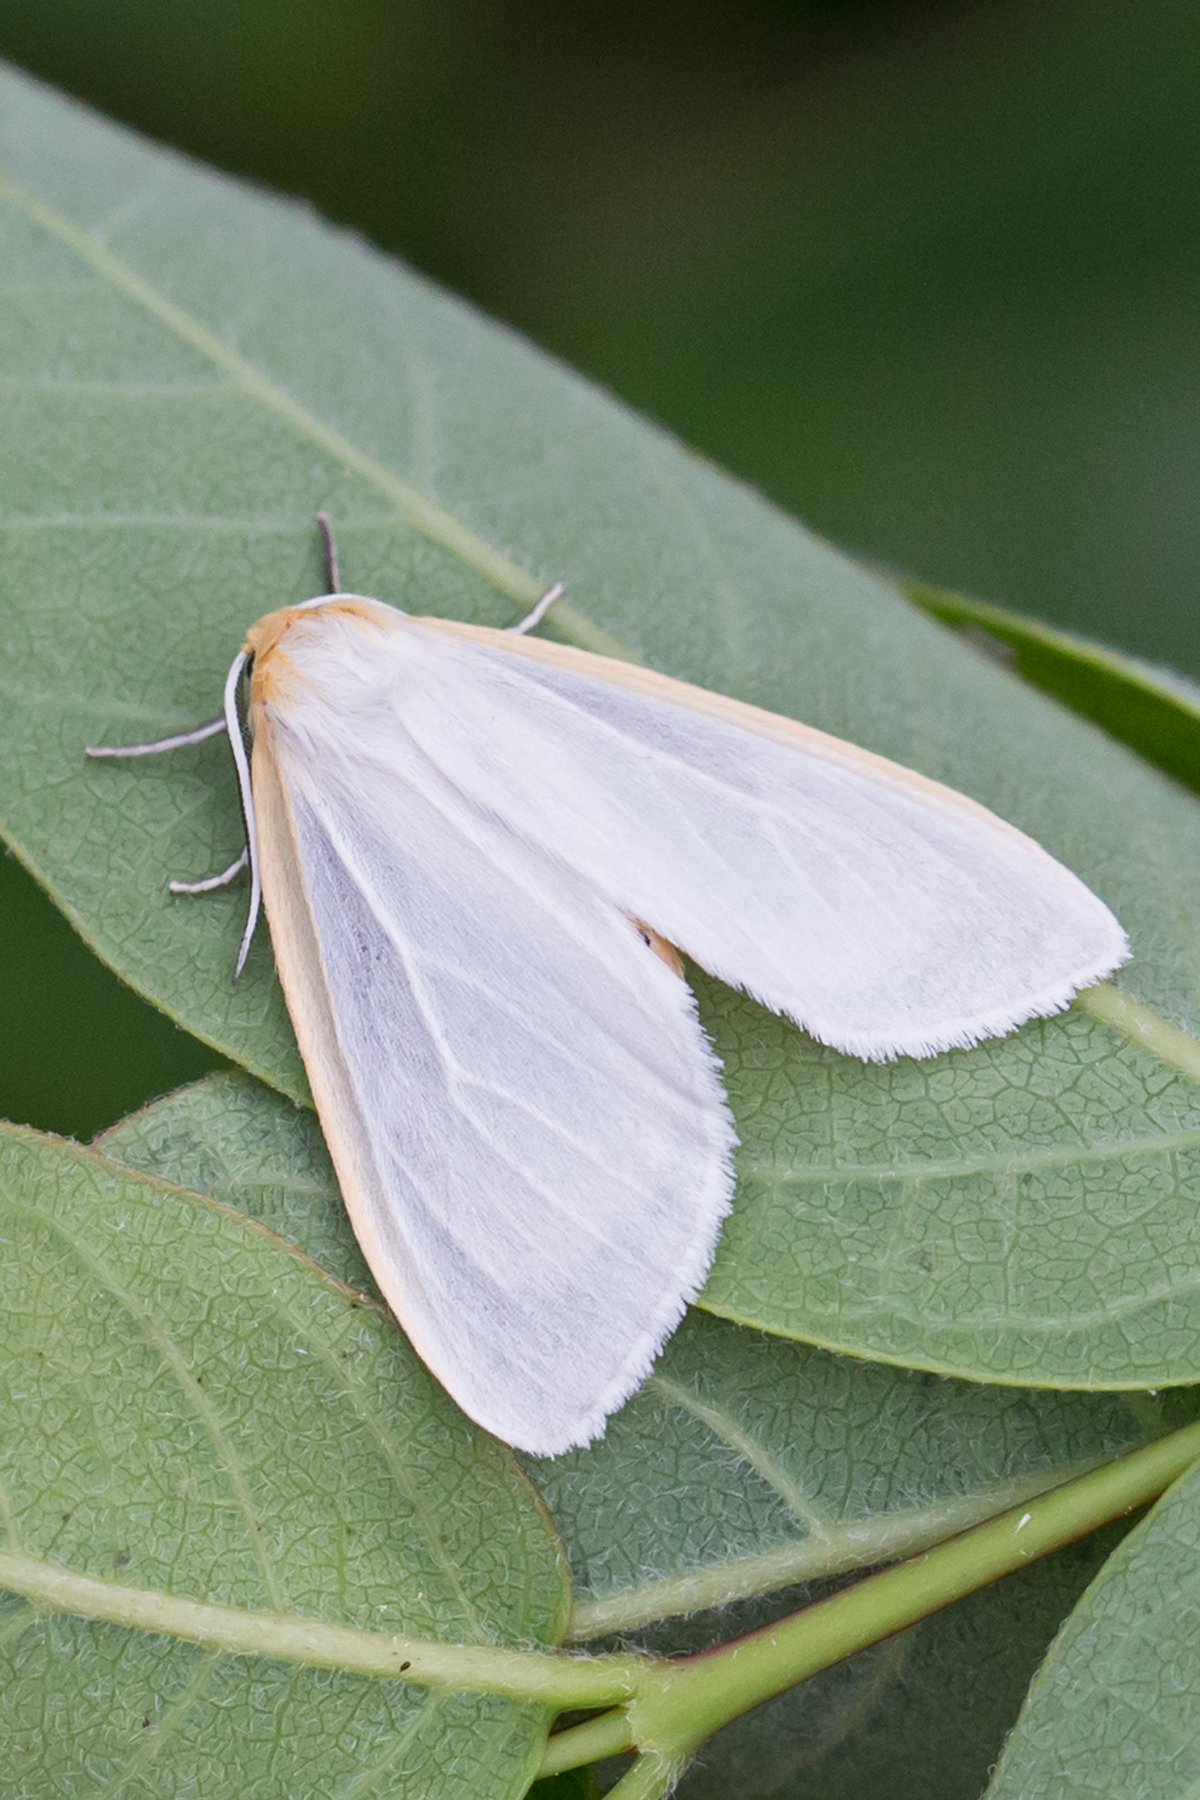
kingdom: Animalia
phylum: Arthropoda
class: Insecta
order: Lepidoptera
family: Erebidae
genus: Cycnia
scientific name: Cycnia tenera
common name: Delicate cycnia moth
